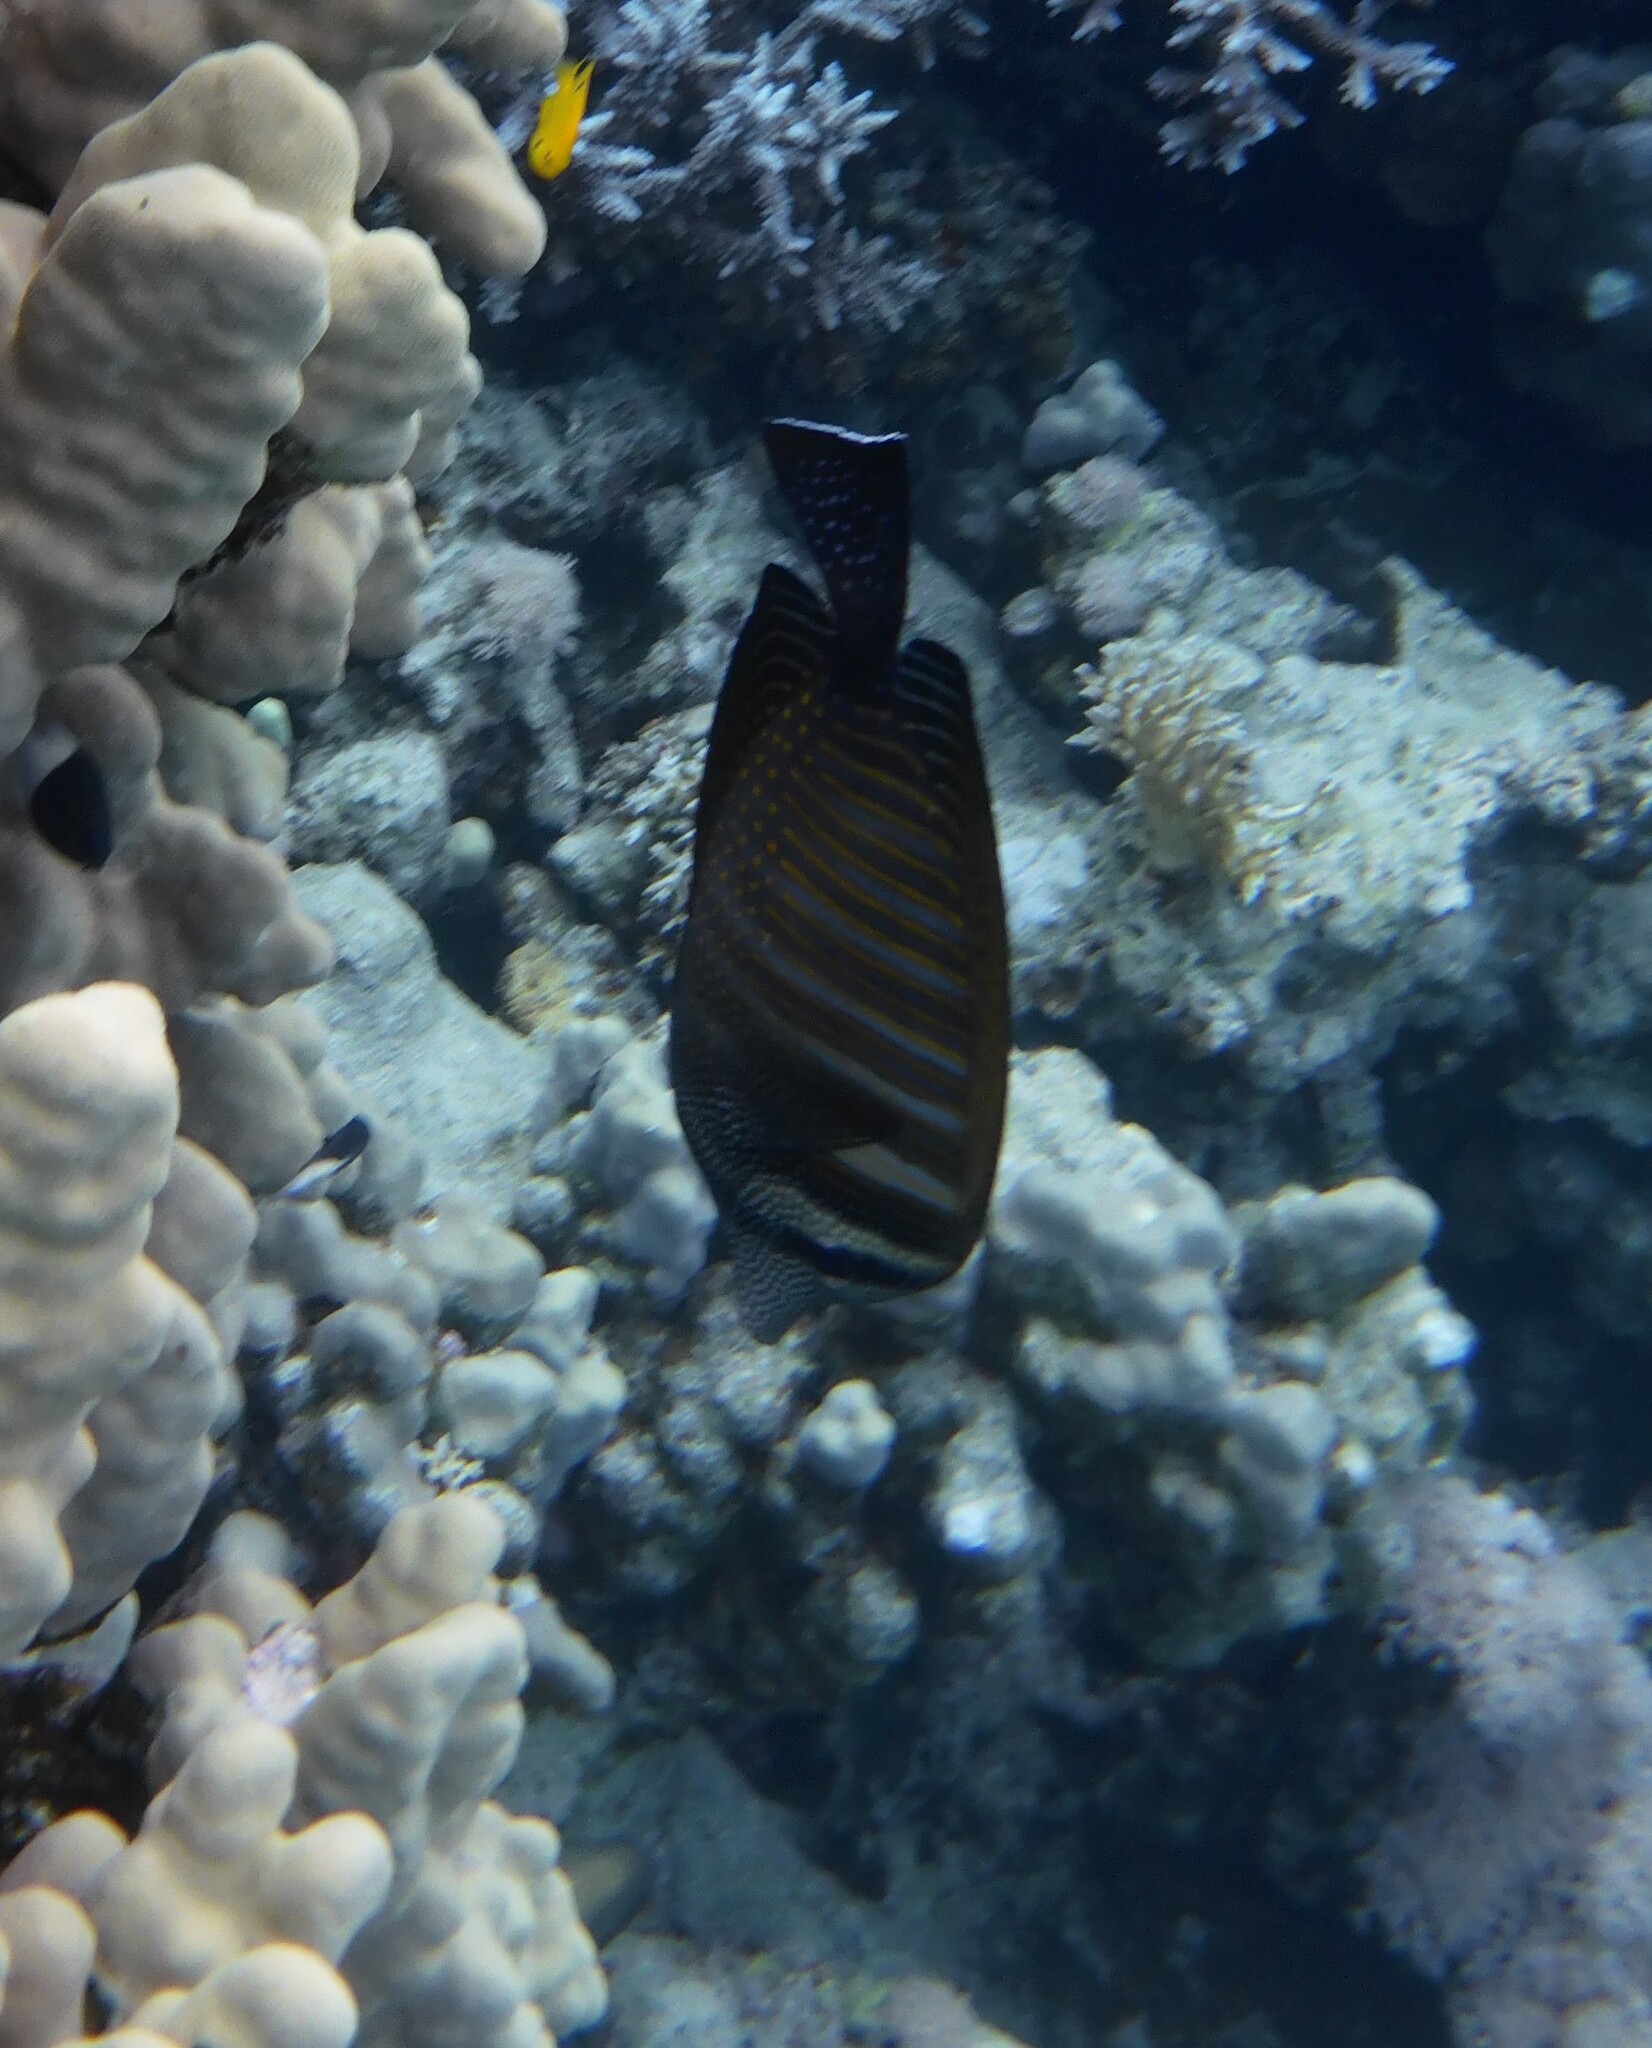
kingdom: Animalia
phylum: Chordata
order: Perciformes
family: Acanthuridae
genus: Zebrasoma
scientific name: Zebrasoma desjardinii
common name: Desjardin's sailfin tang
